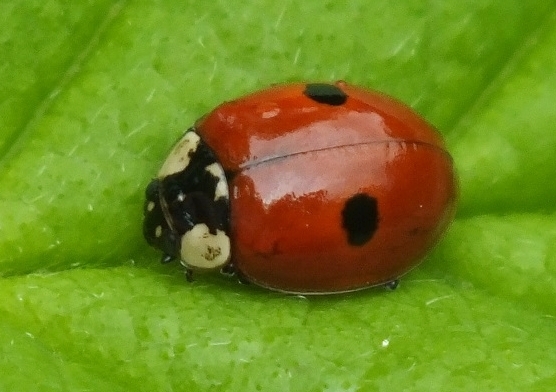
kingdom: Animalia
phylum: Arthropoda
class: Insecta
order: Coleoptera
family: Coccinellidae
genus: Adalia
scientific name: Adalia bipunctata
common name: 2-spot ladybird
